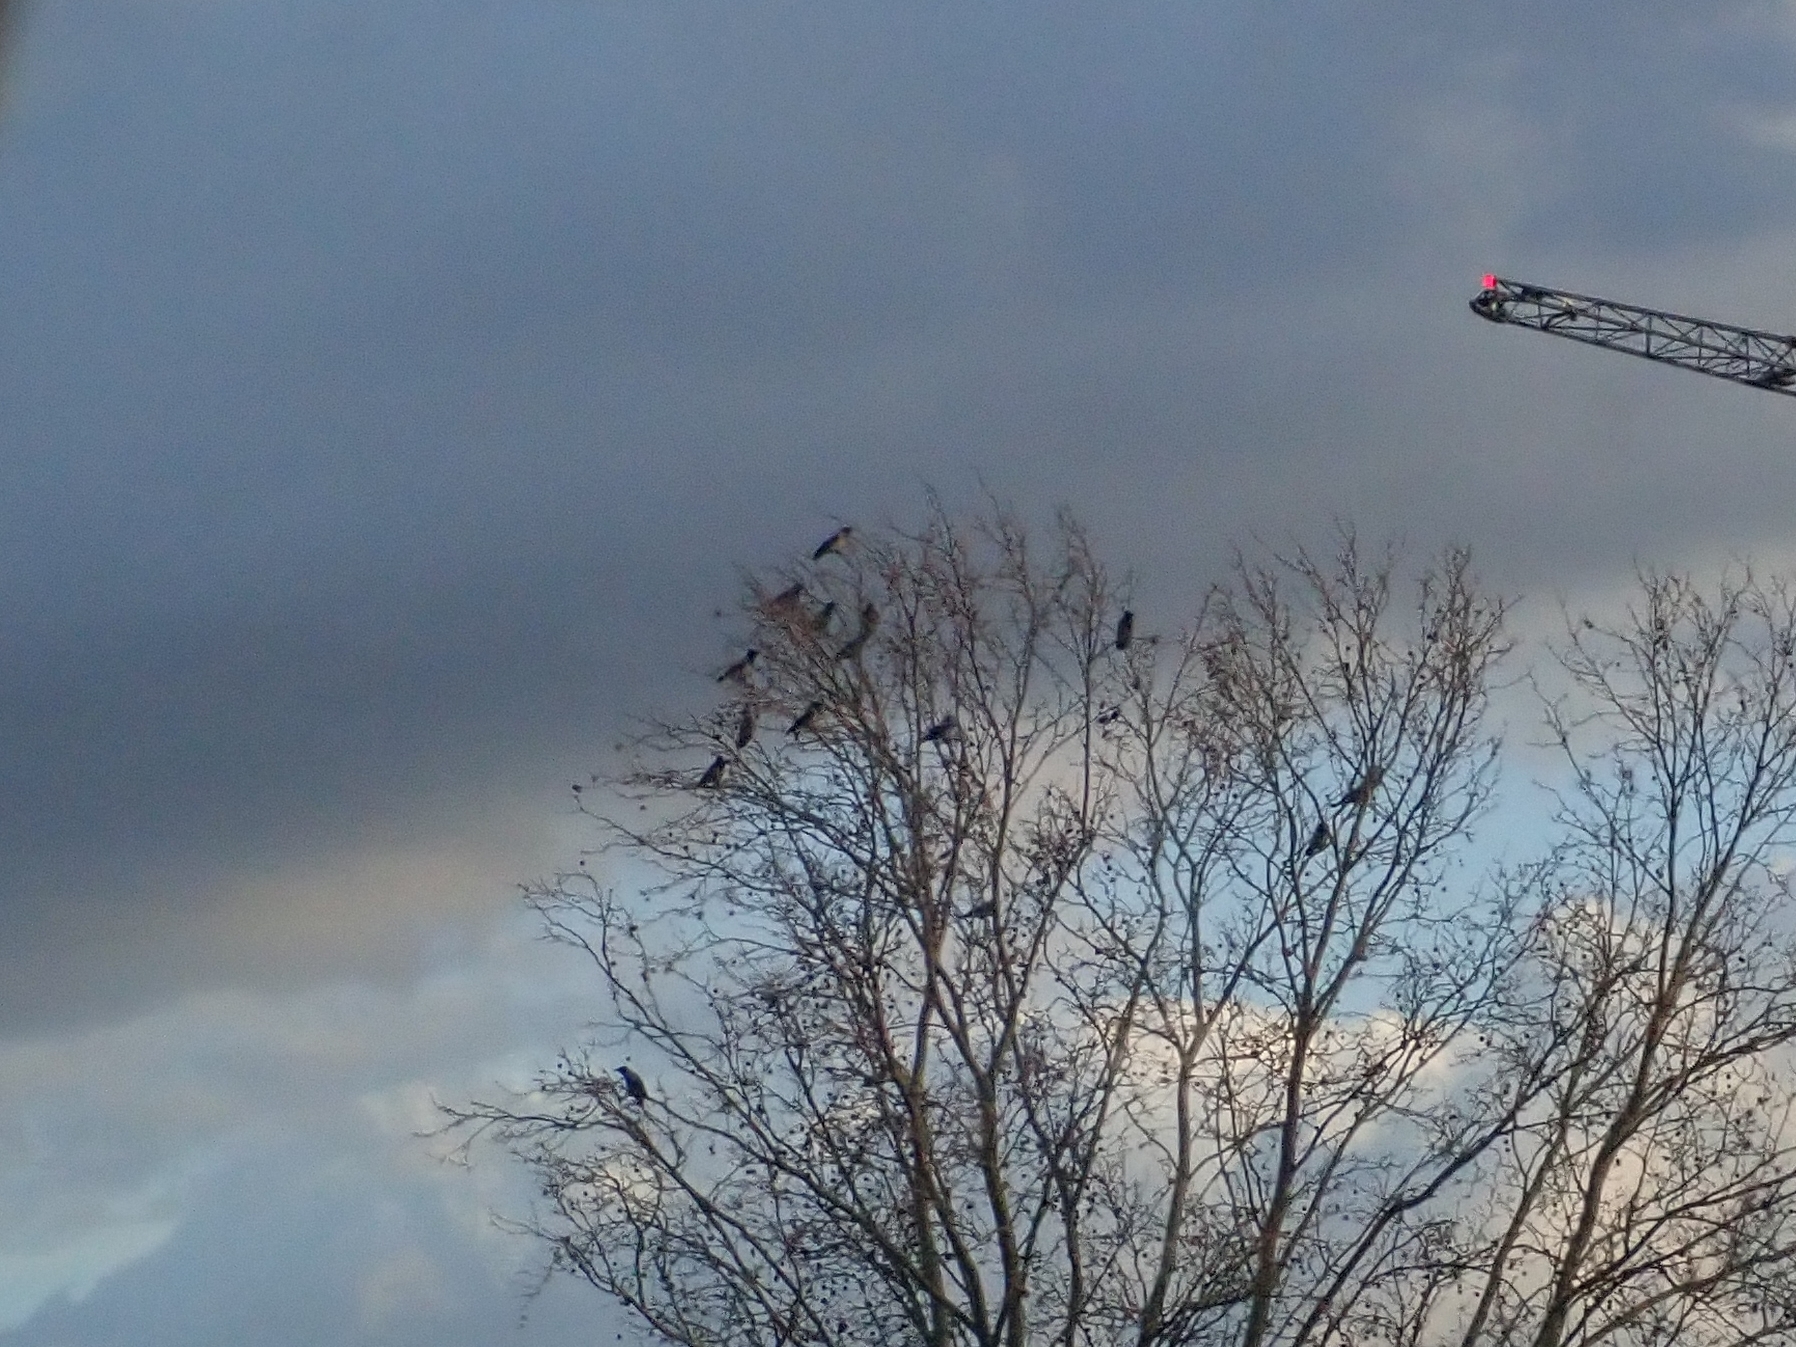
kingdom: Animalia
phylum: Chordata
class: Aves
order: Passeriformes
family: Corvidae
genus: Corvus
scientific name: Corvus cornix
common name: Hooded crow
